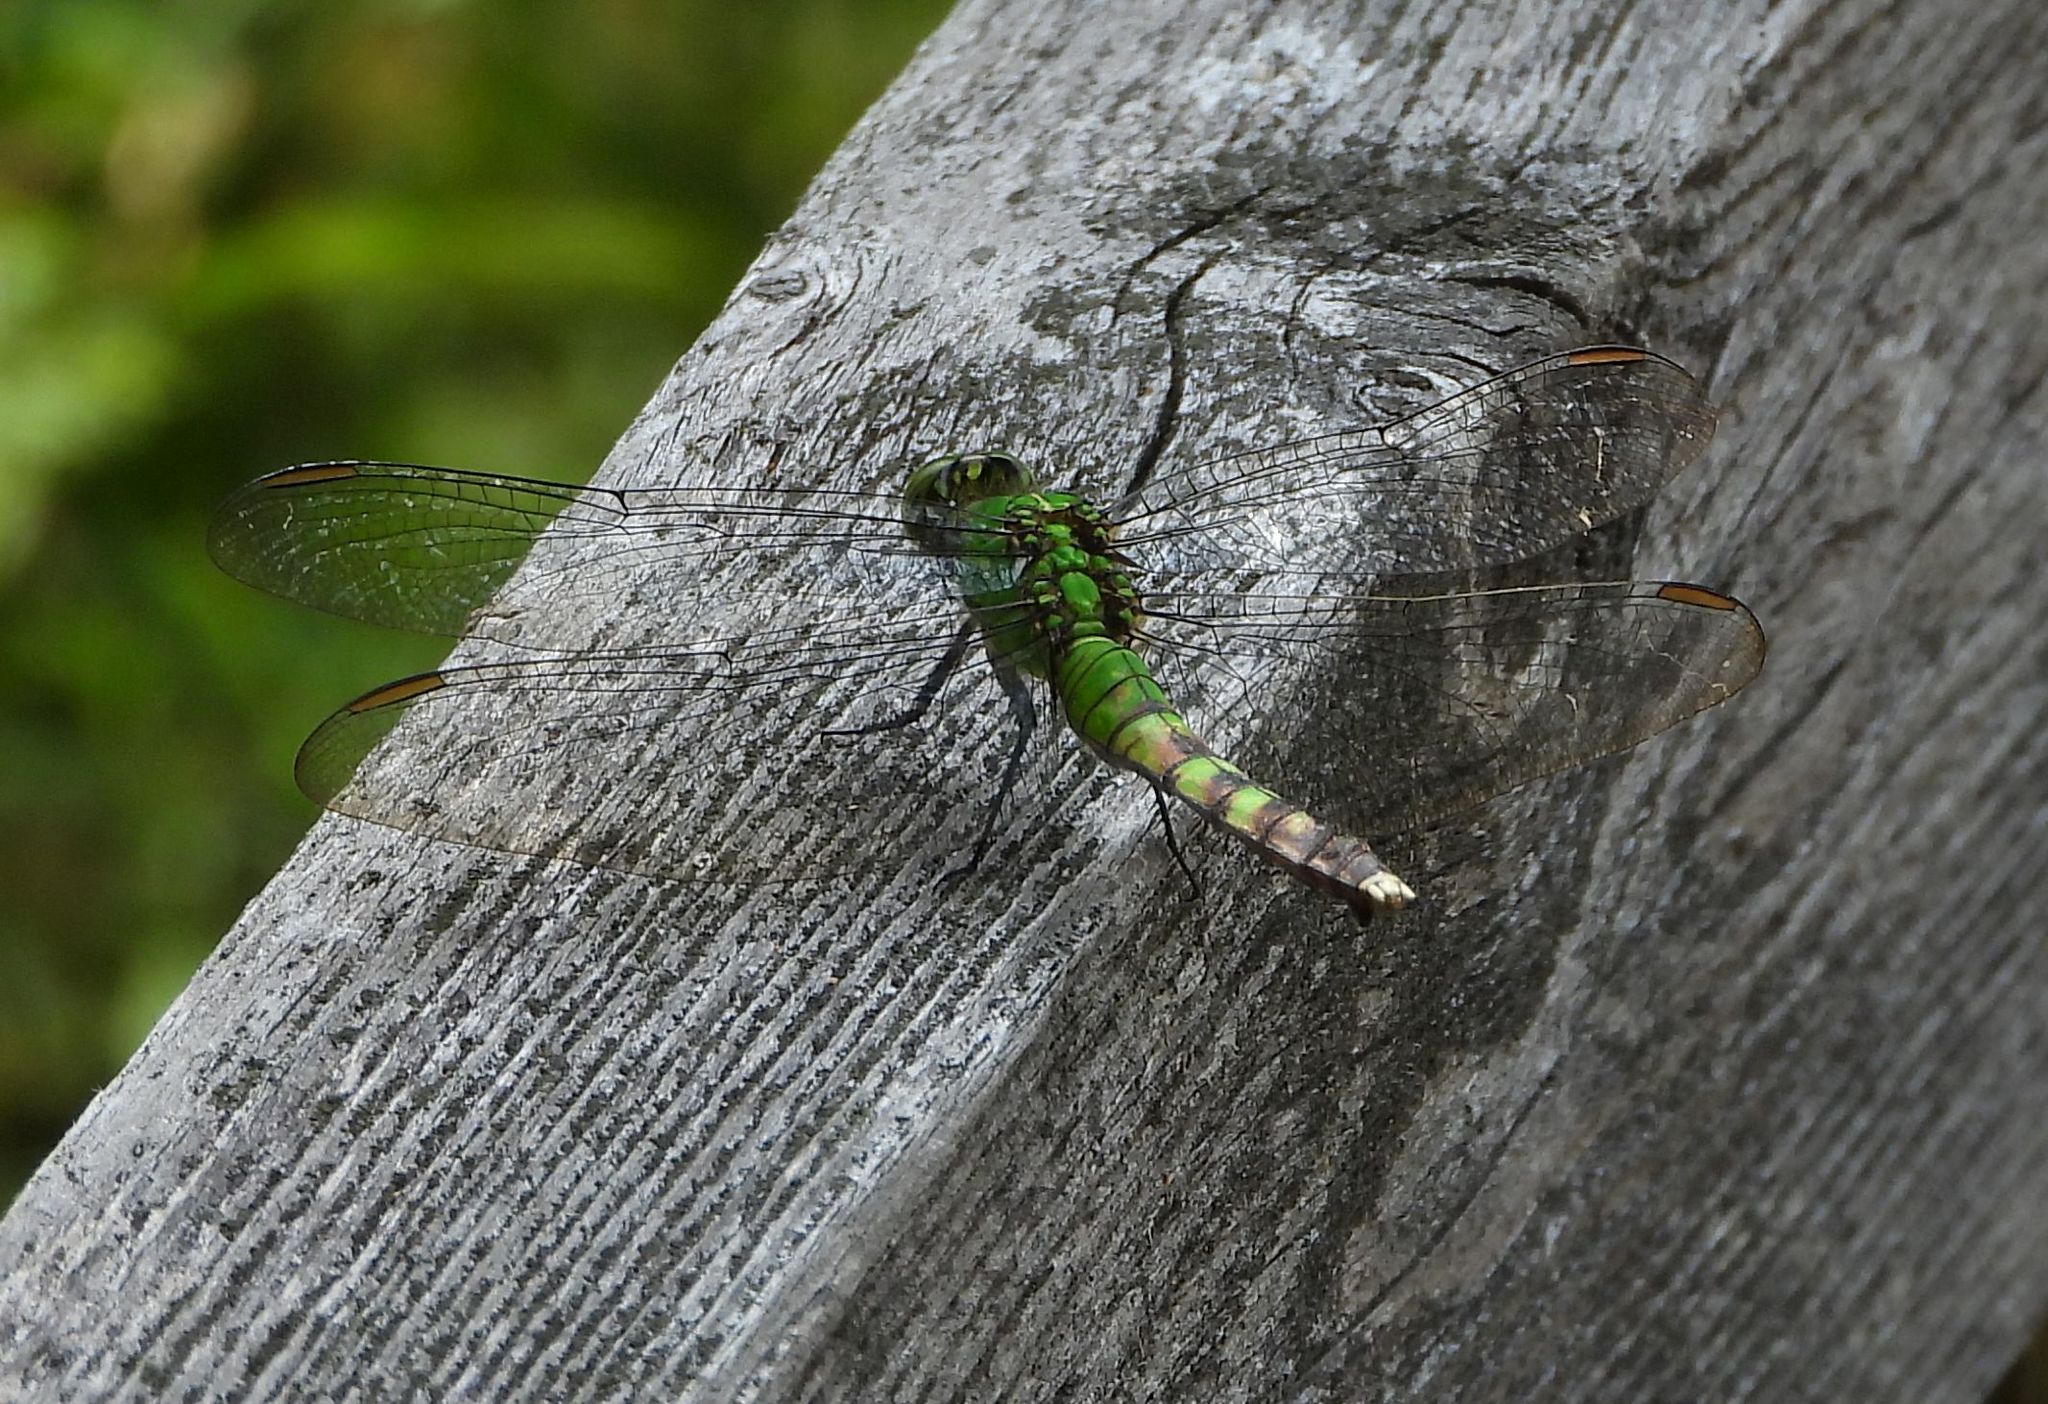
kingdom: Animalia
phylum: Arthropoda
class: Insecta
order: Odonata
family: Libellulidae
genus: Erythemis
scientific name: Erythemis simplicicollis
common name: Eastern pondhawk
